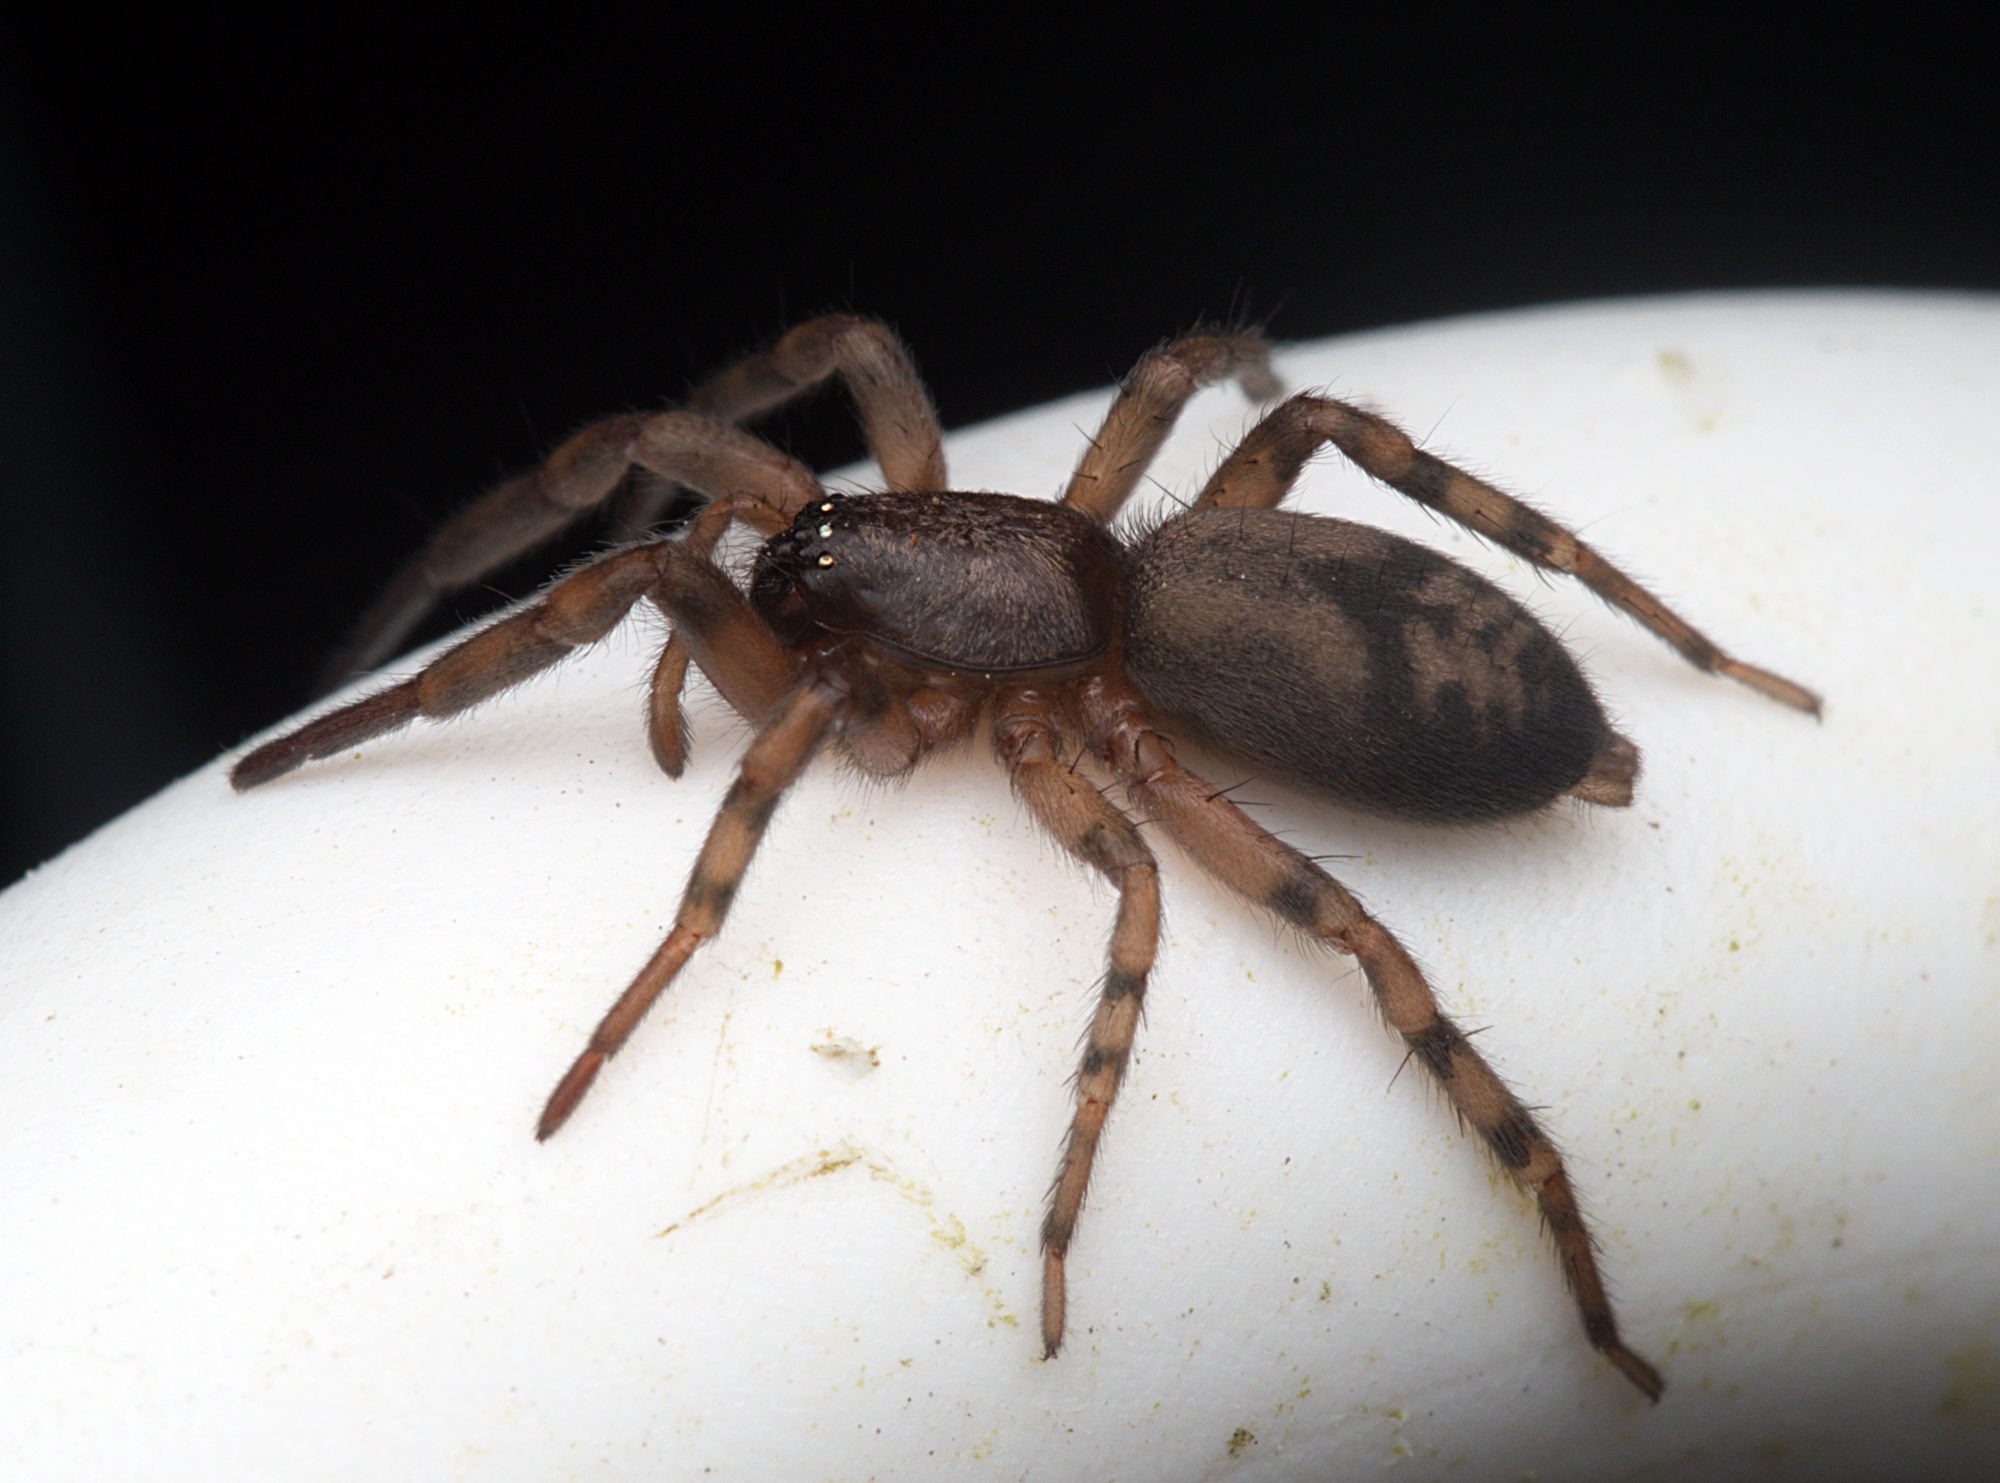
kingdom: Animalia
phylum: Arthropoda
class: Arachnida
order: Araneae
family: Gnaphosidae
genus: Intruda
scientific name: Intruda signata
